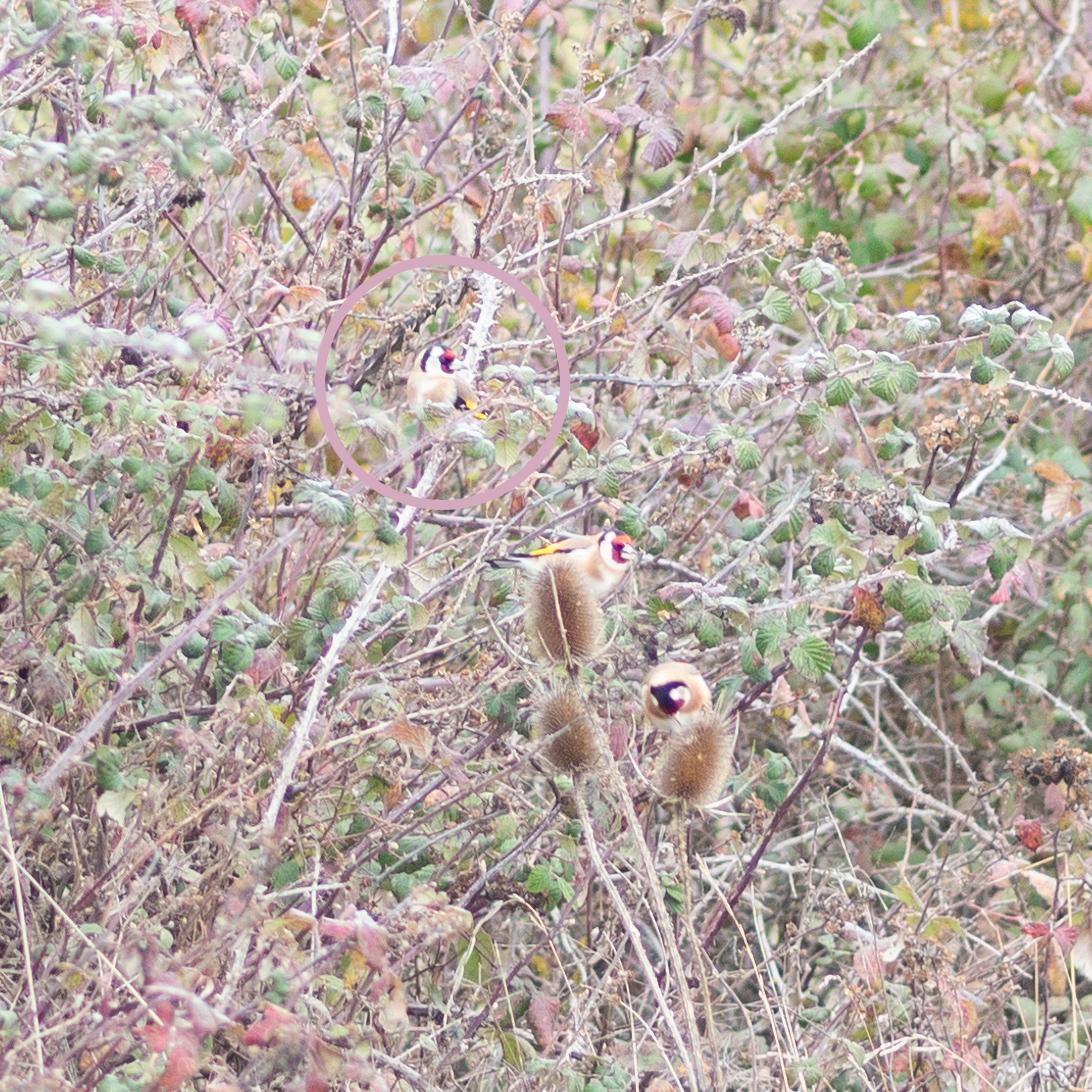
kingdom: Animalia
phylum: Chordata
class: Aves
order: Passeriformes
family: Fringillidae
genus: Carduelis
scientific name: Carduelis carduelis
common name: European goldfinch
